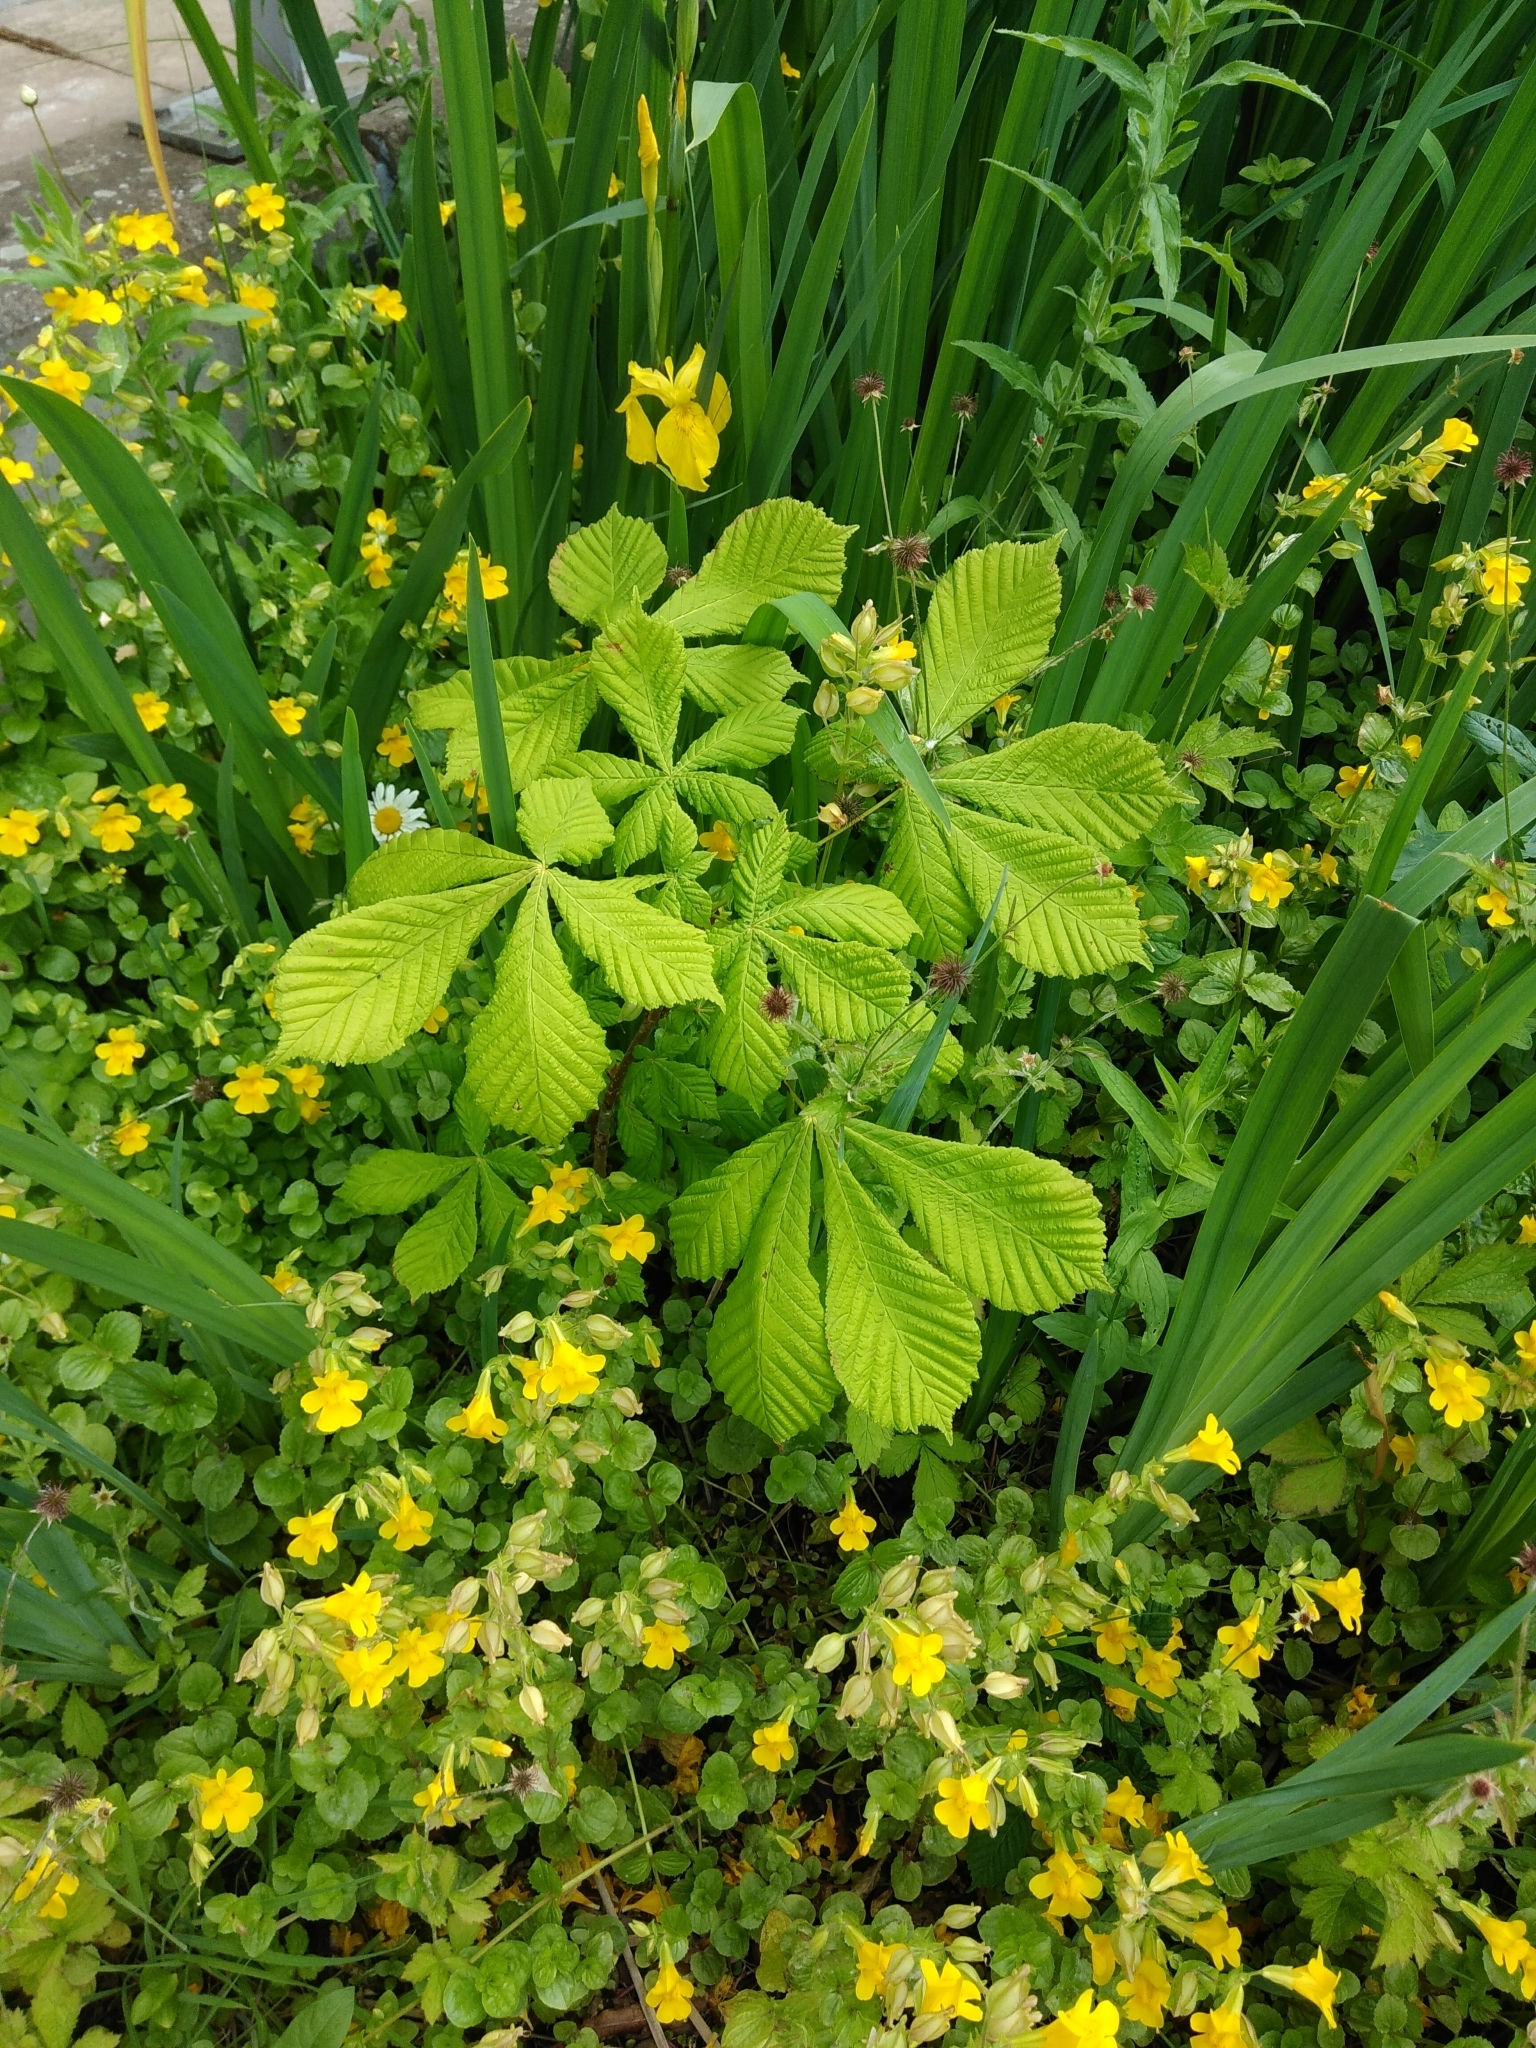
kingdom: Plantae
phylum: Tracheophyta
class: Magnoliopsida
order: Sapindales
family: Sapindaceae
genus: Aesculus
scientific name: Aesculus hippocastanum
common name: Horse-chestnut
